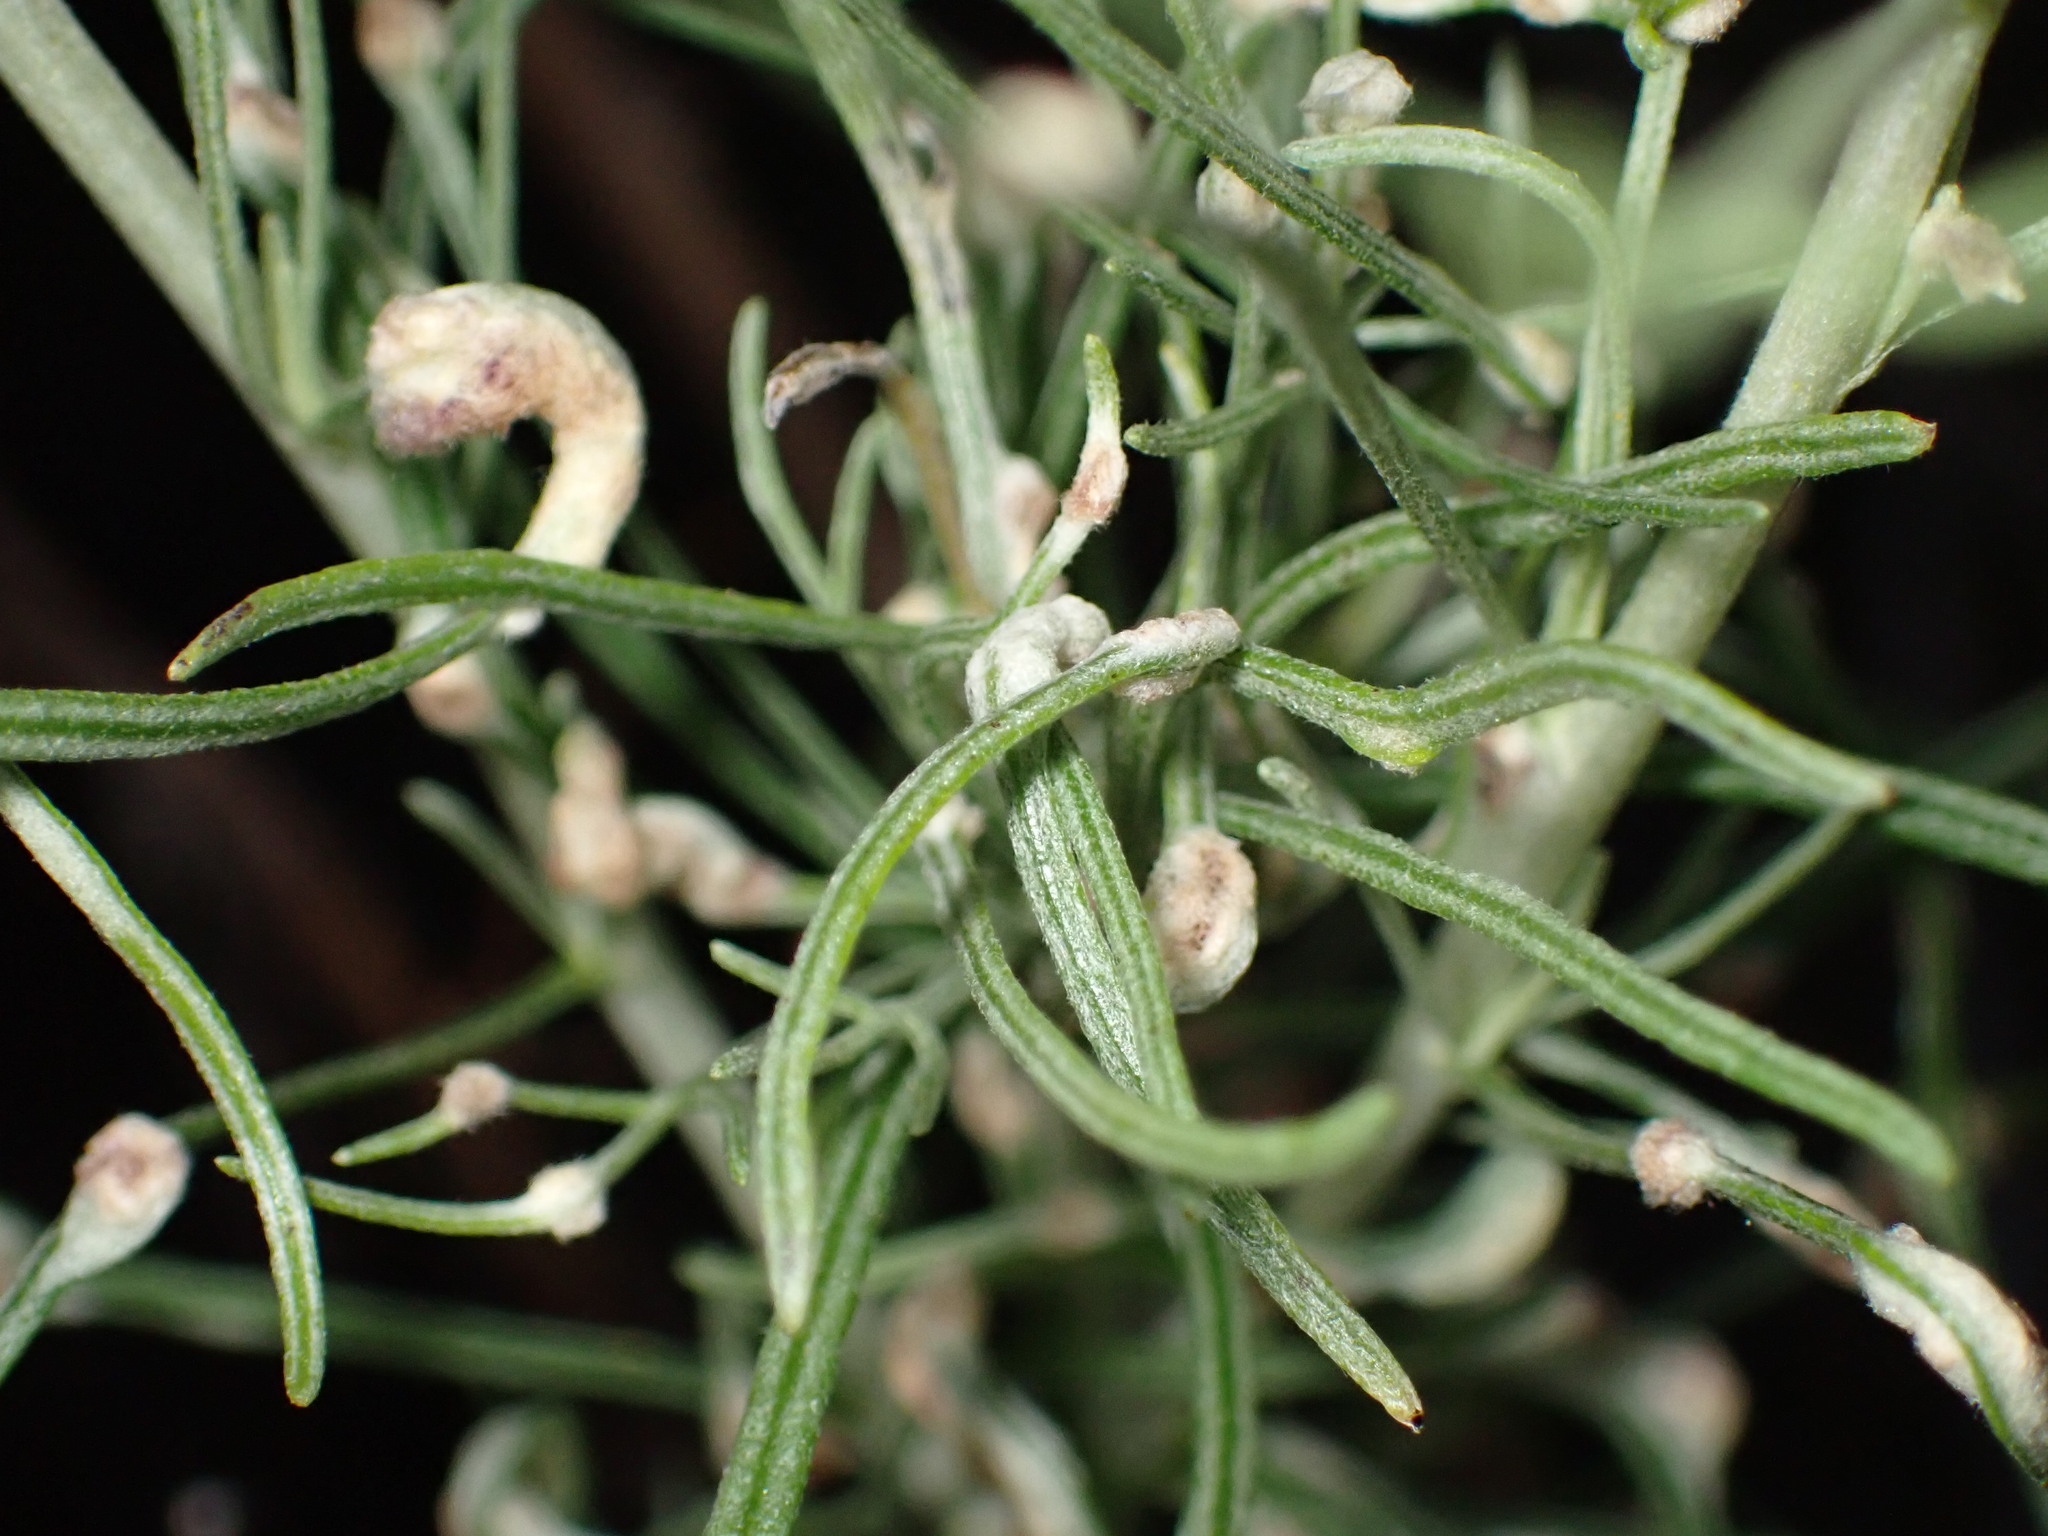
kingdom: Animalia
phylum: Arthropoda
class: Arachnida
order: Trombidiformes
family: Eriophyidae
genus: Aceria
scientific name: Aceria
